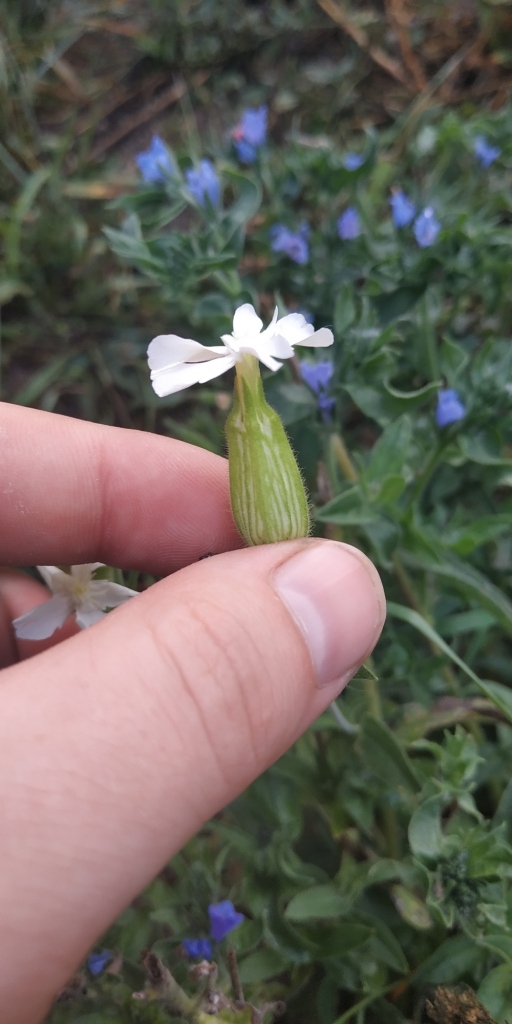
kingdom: Plantae
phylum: Tracheophyta
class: Magnoliopsida
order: Caryophyllales
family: Caryophyllaceae
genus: Silene
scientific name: Silene latifolia
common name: White campion
